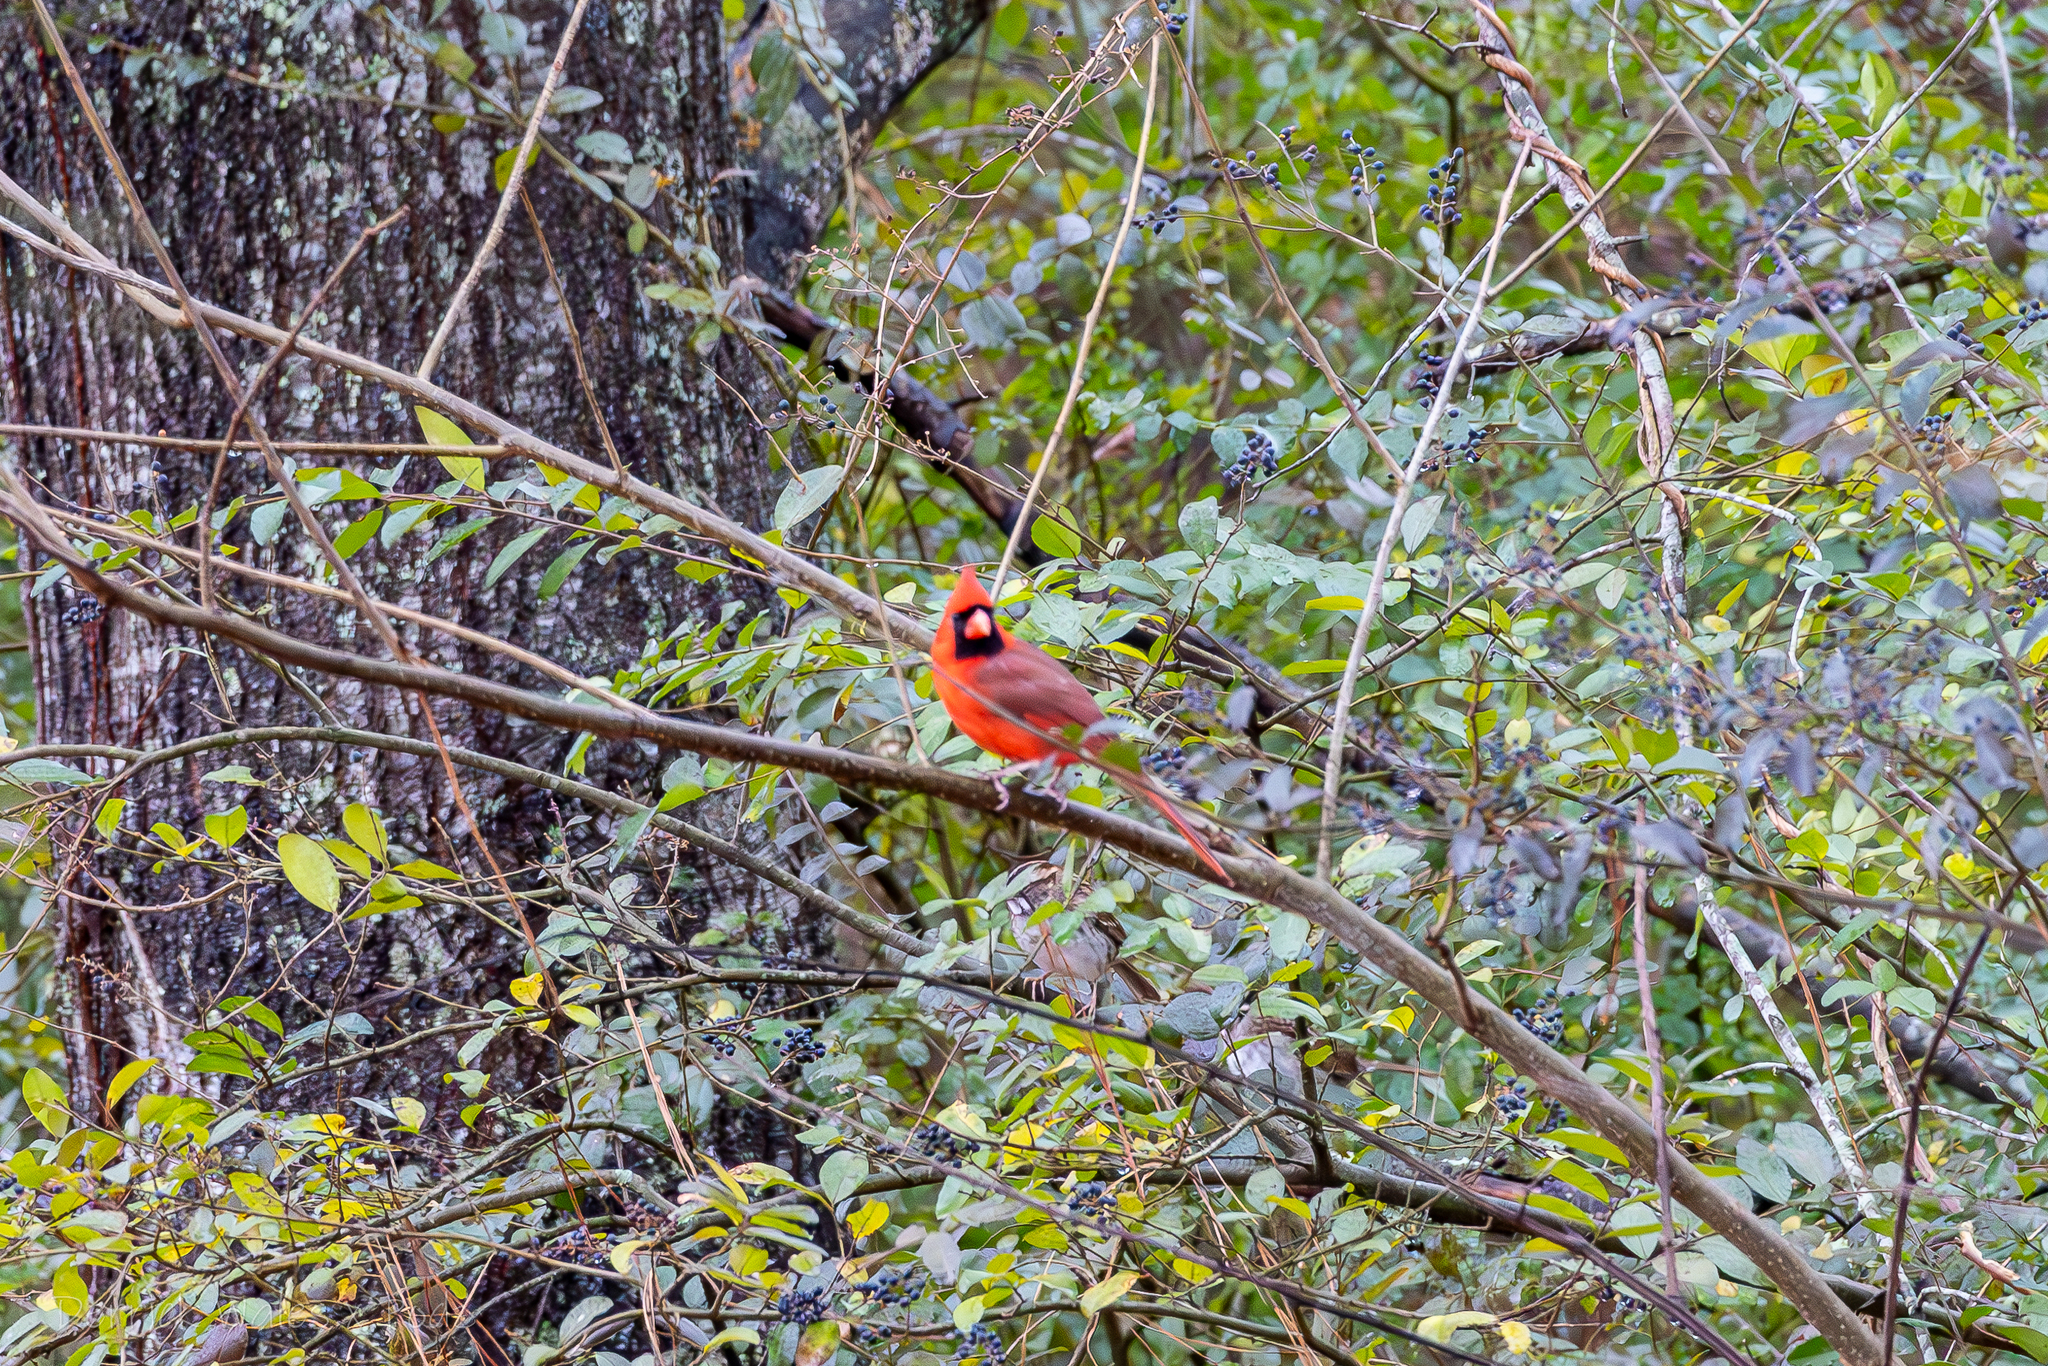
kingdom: Animalia
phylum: Chordata
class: Aves
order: Passeriformes
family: Cardinalidae
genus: Cardinalis
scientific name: Cardinalis cardinalis
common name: Northern cardinal
